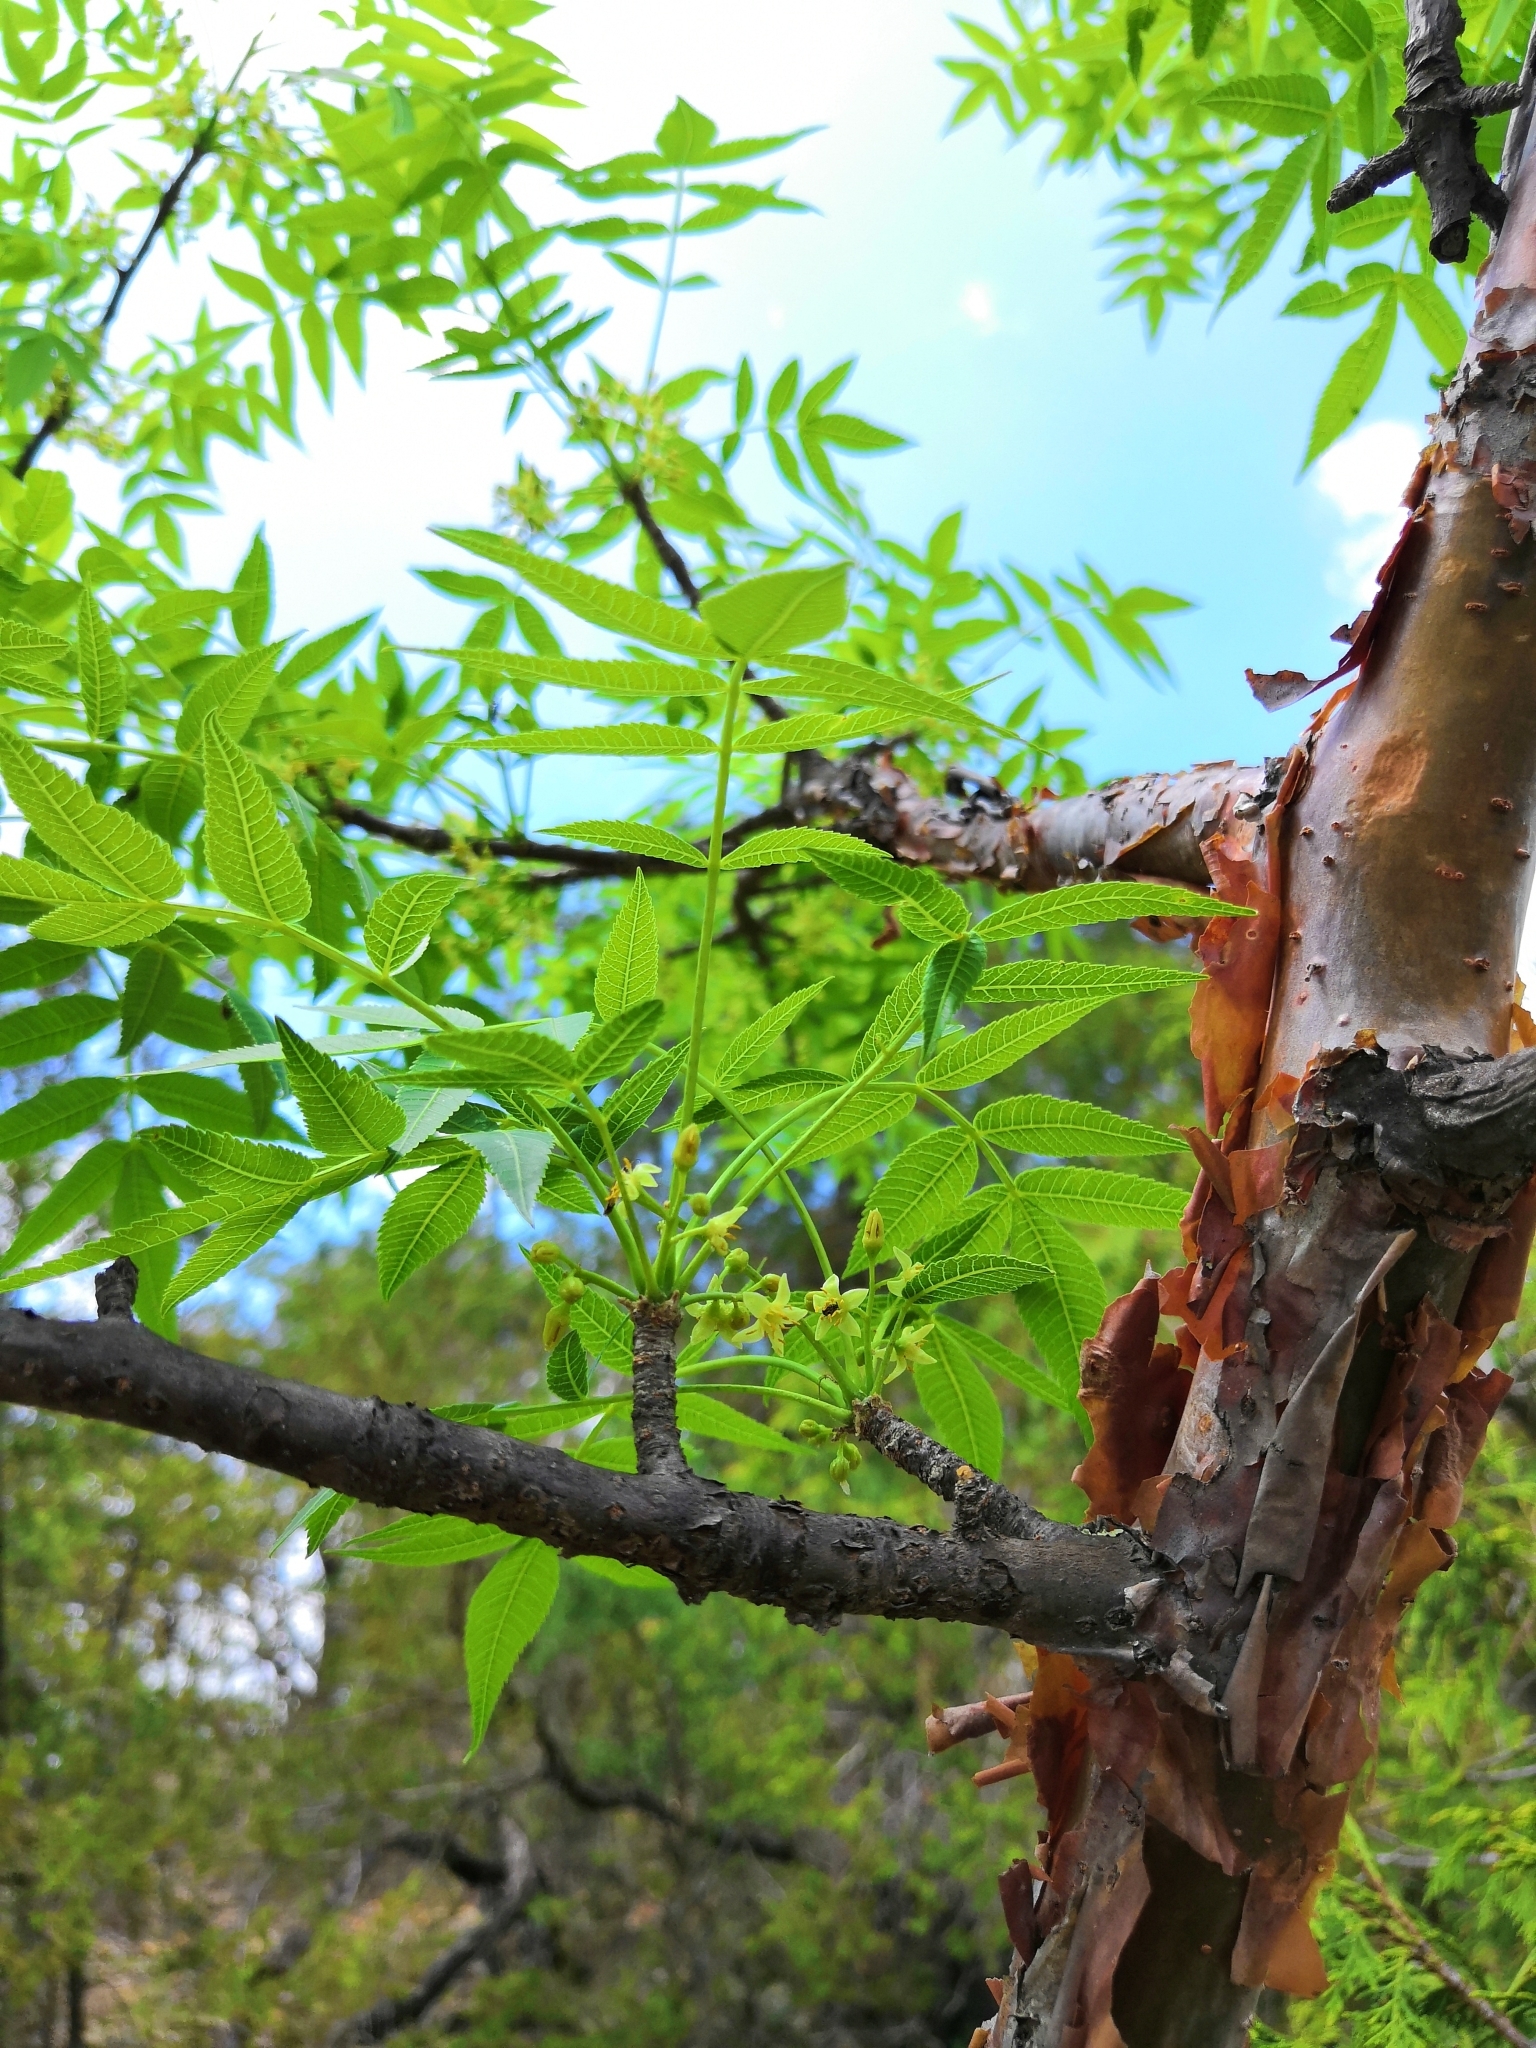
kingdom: Plantae
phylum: Tracheophyta
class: Magnoliopsida
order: Sapindales
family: Burseraceae
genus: Bursera
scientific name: Bursera multijuga
